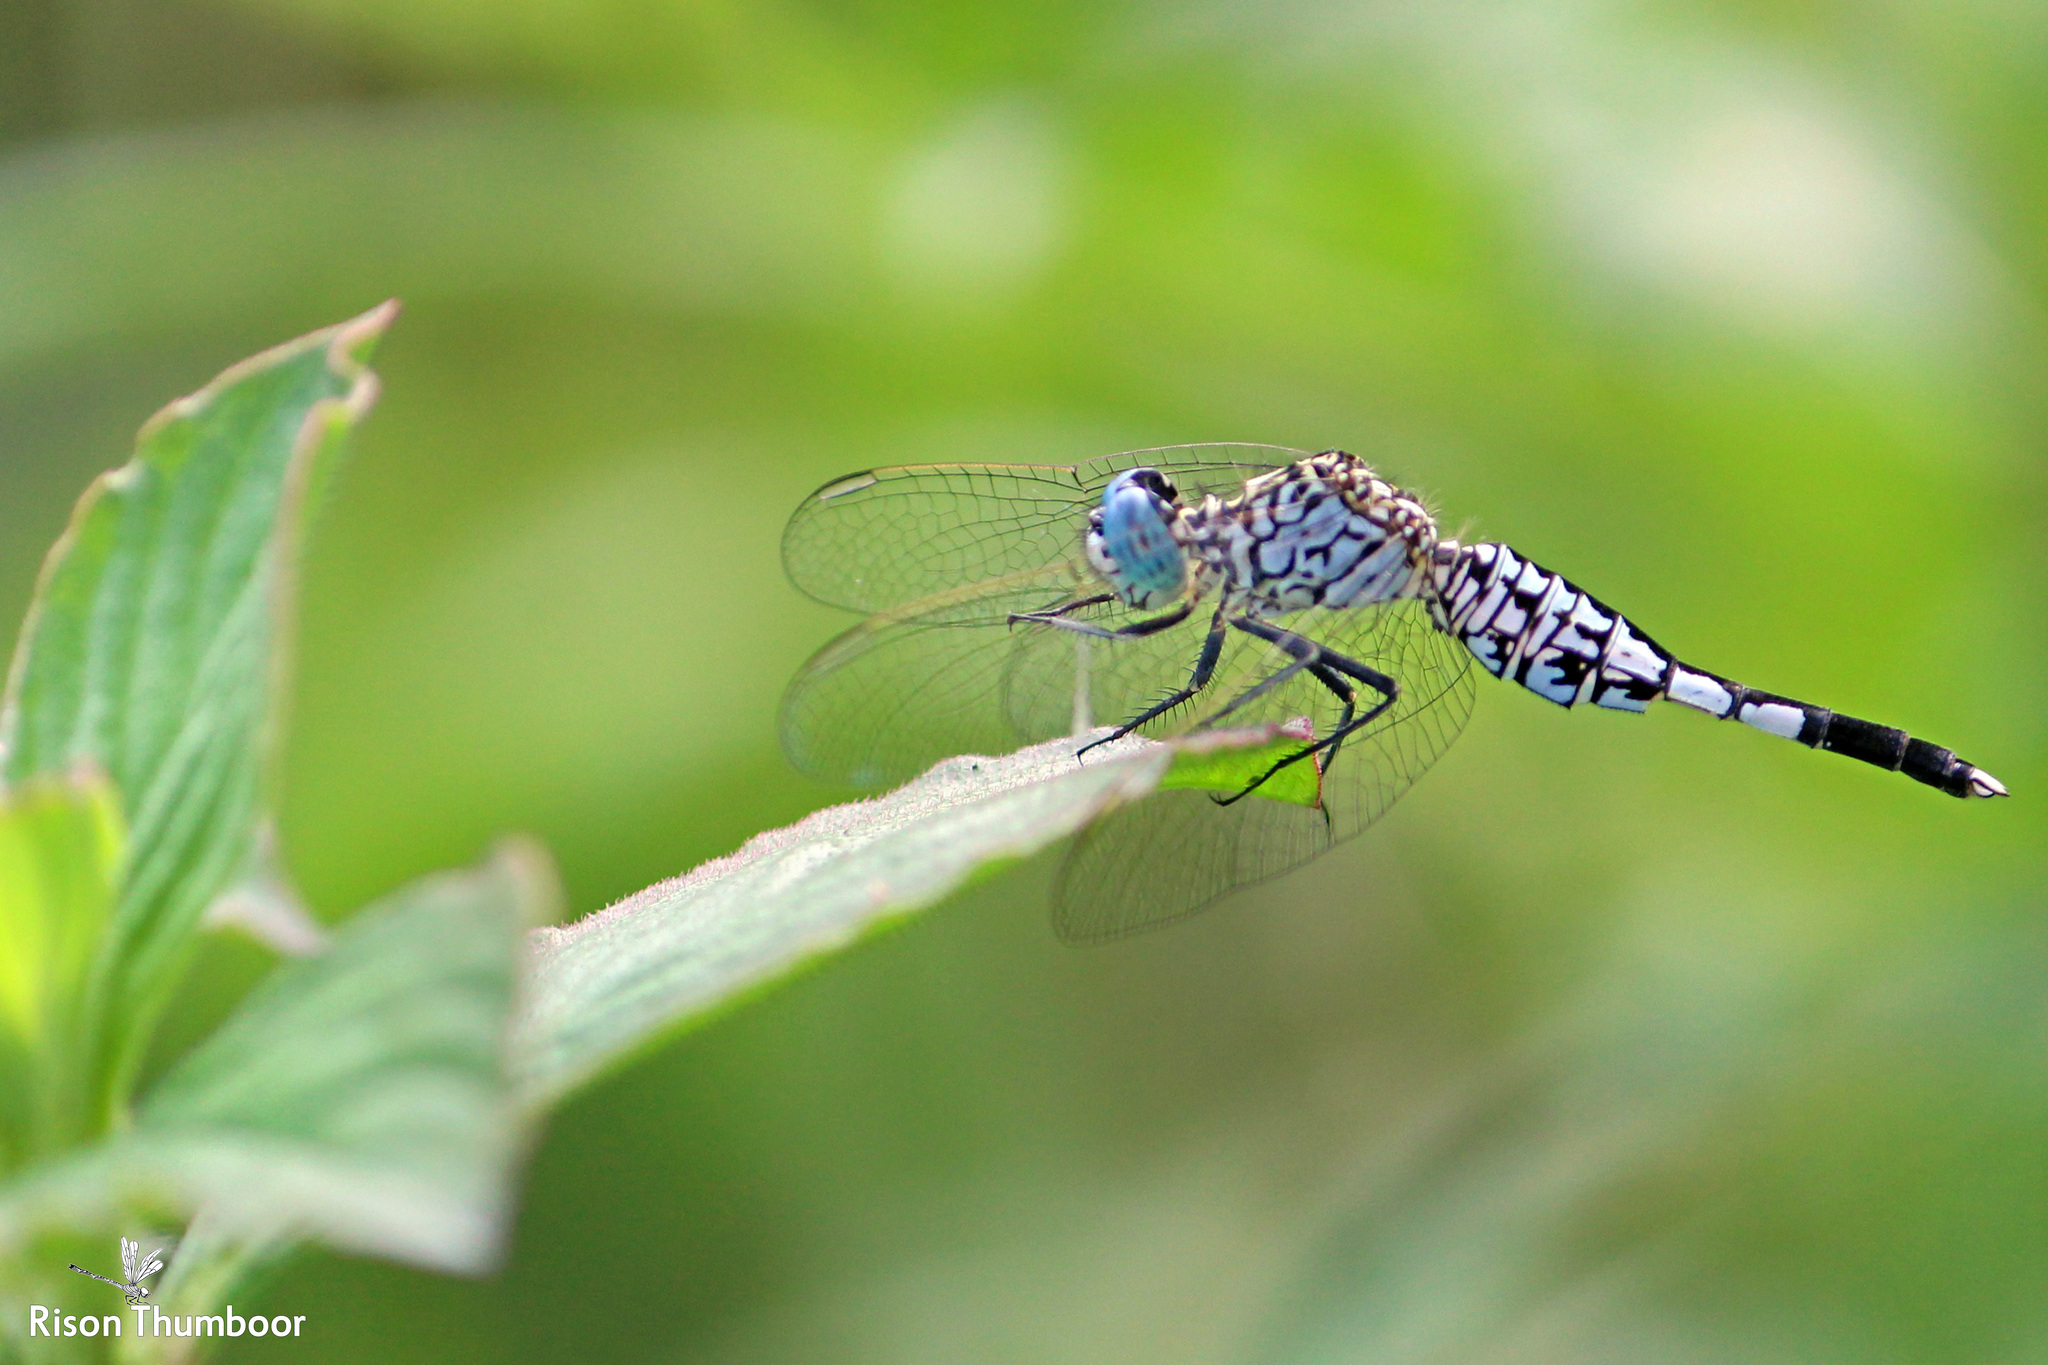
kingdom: Animalia
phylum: Arthropoda
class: Insecta
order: Odonata
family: Libellulidae
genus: Acisoma
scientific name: Acisoma panorpoides
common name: Asian pintail
